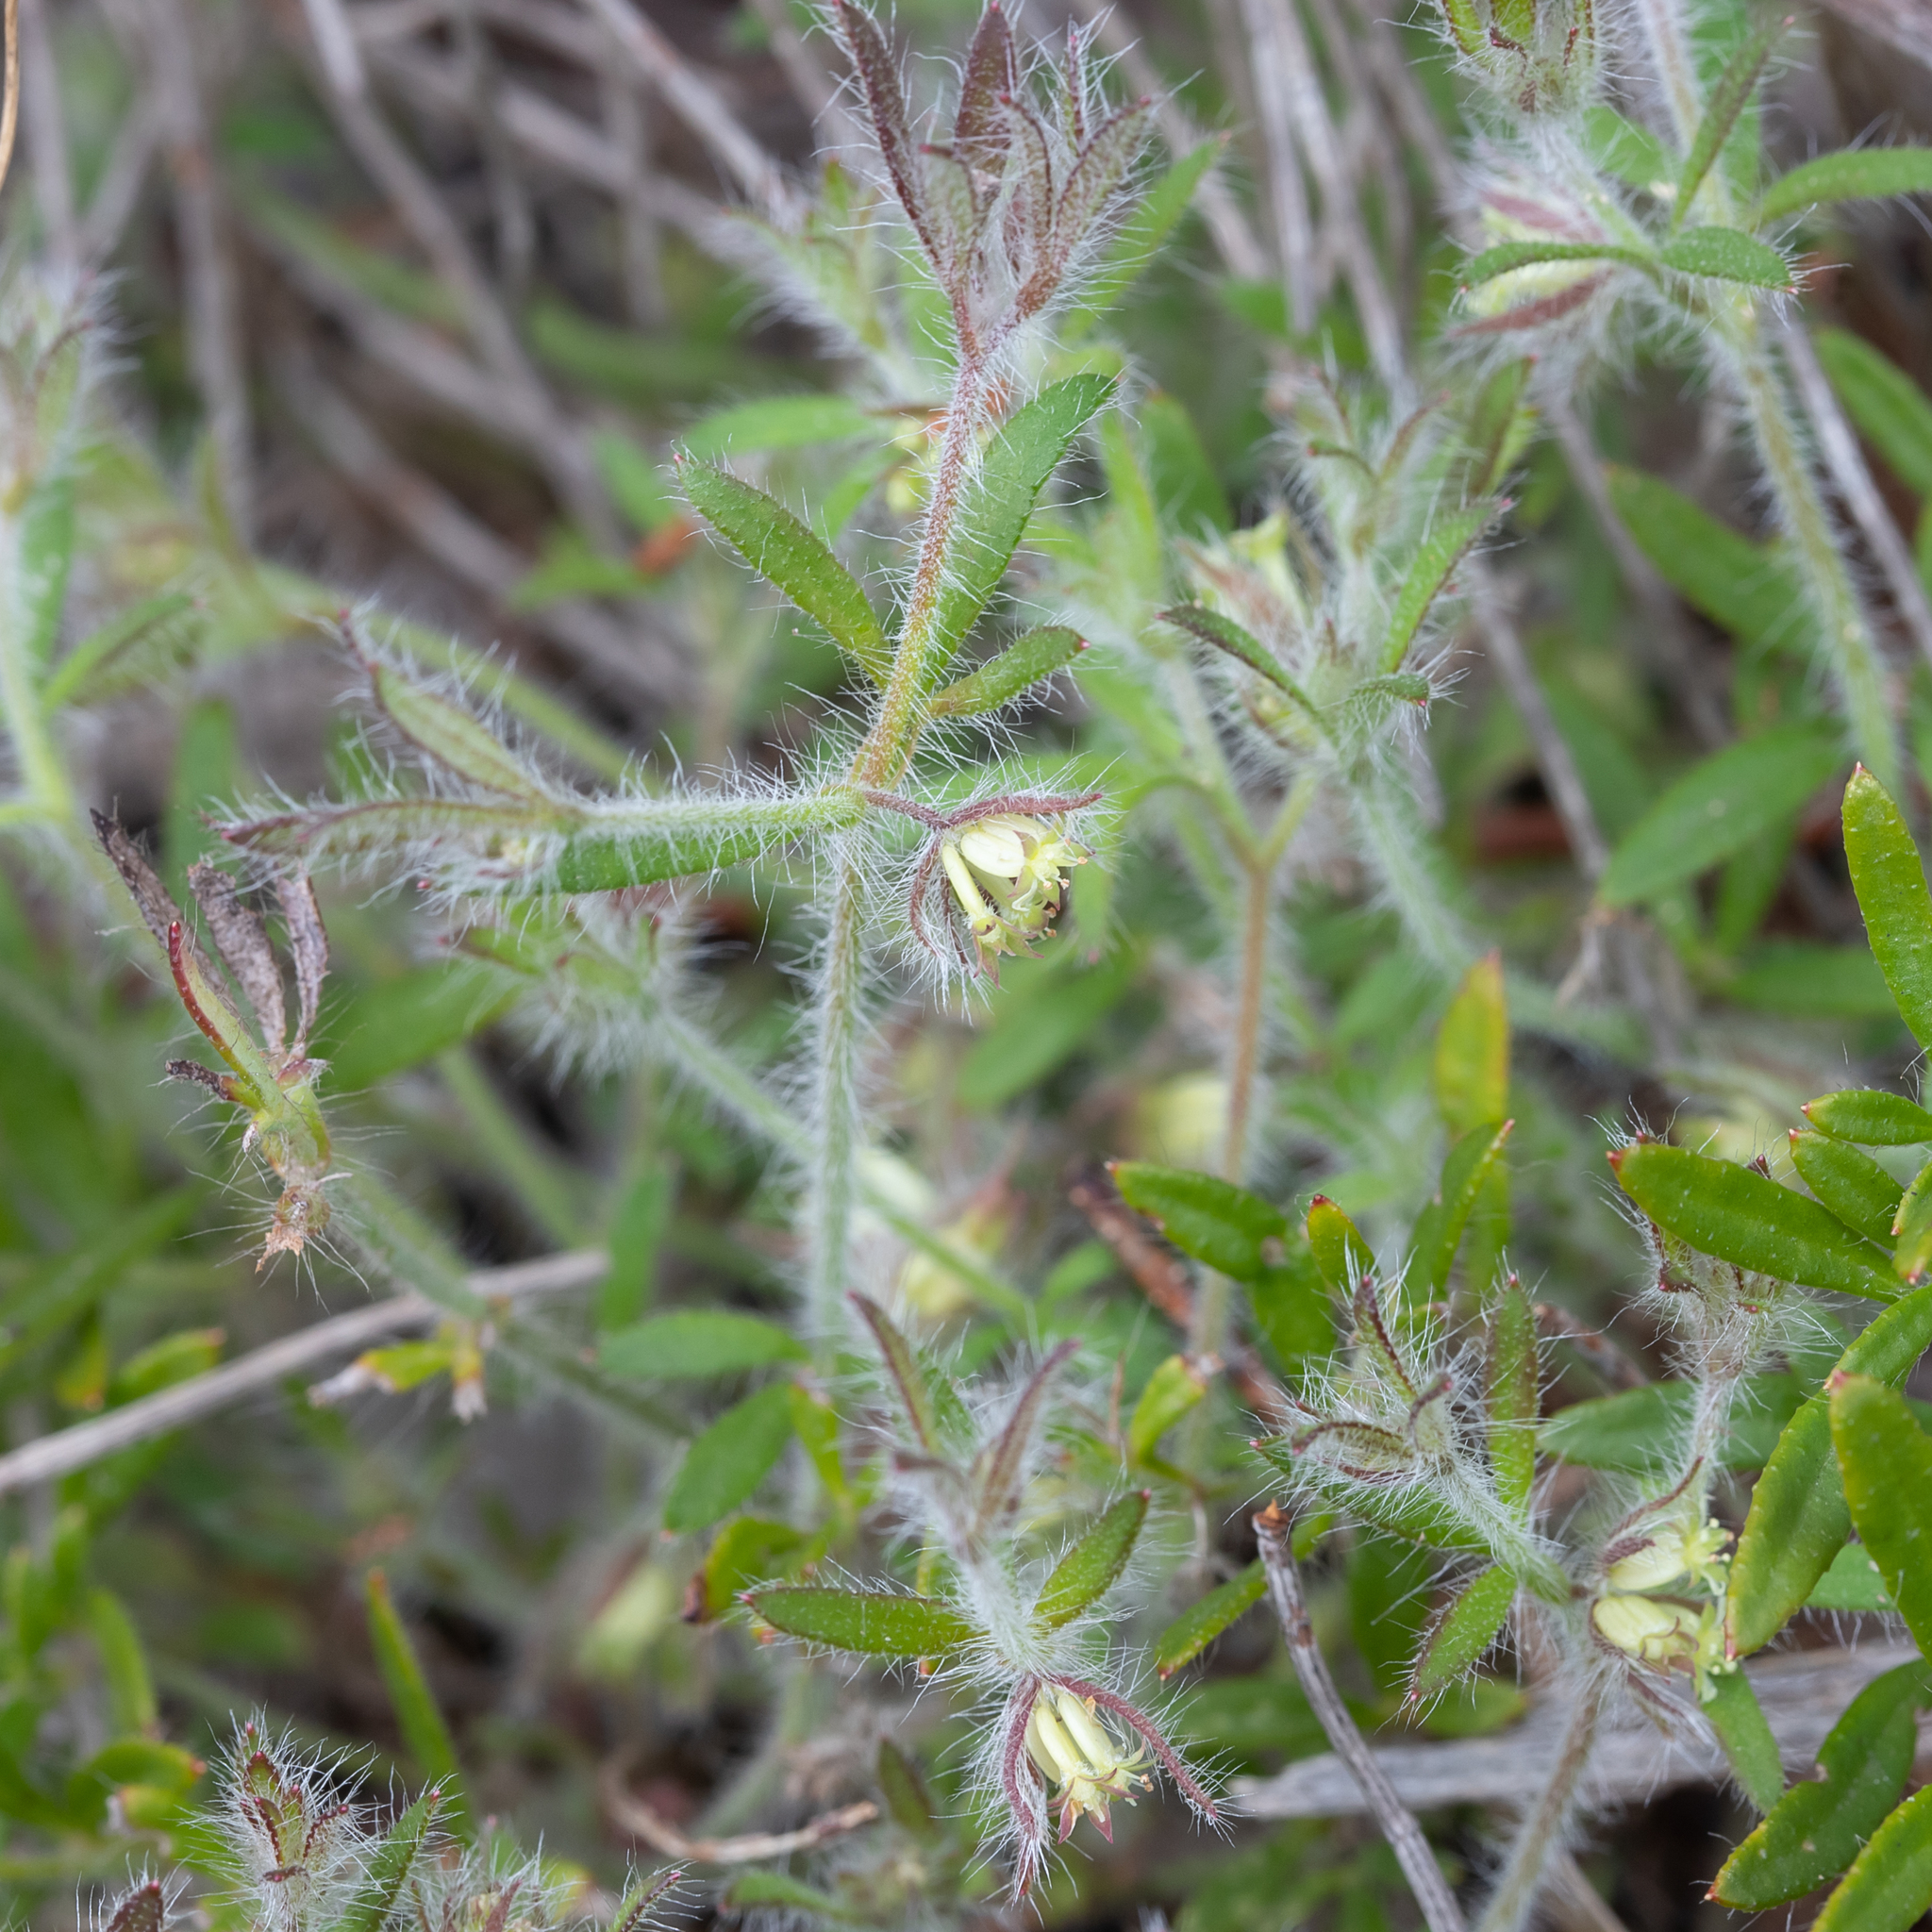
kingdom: Plantae
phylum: Tracheophyta
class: Magnoliopsida
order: Apiales
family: Apiaceae
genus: Xanthosia
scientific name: Xanthosia huegelii
